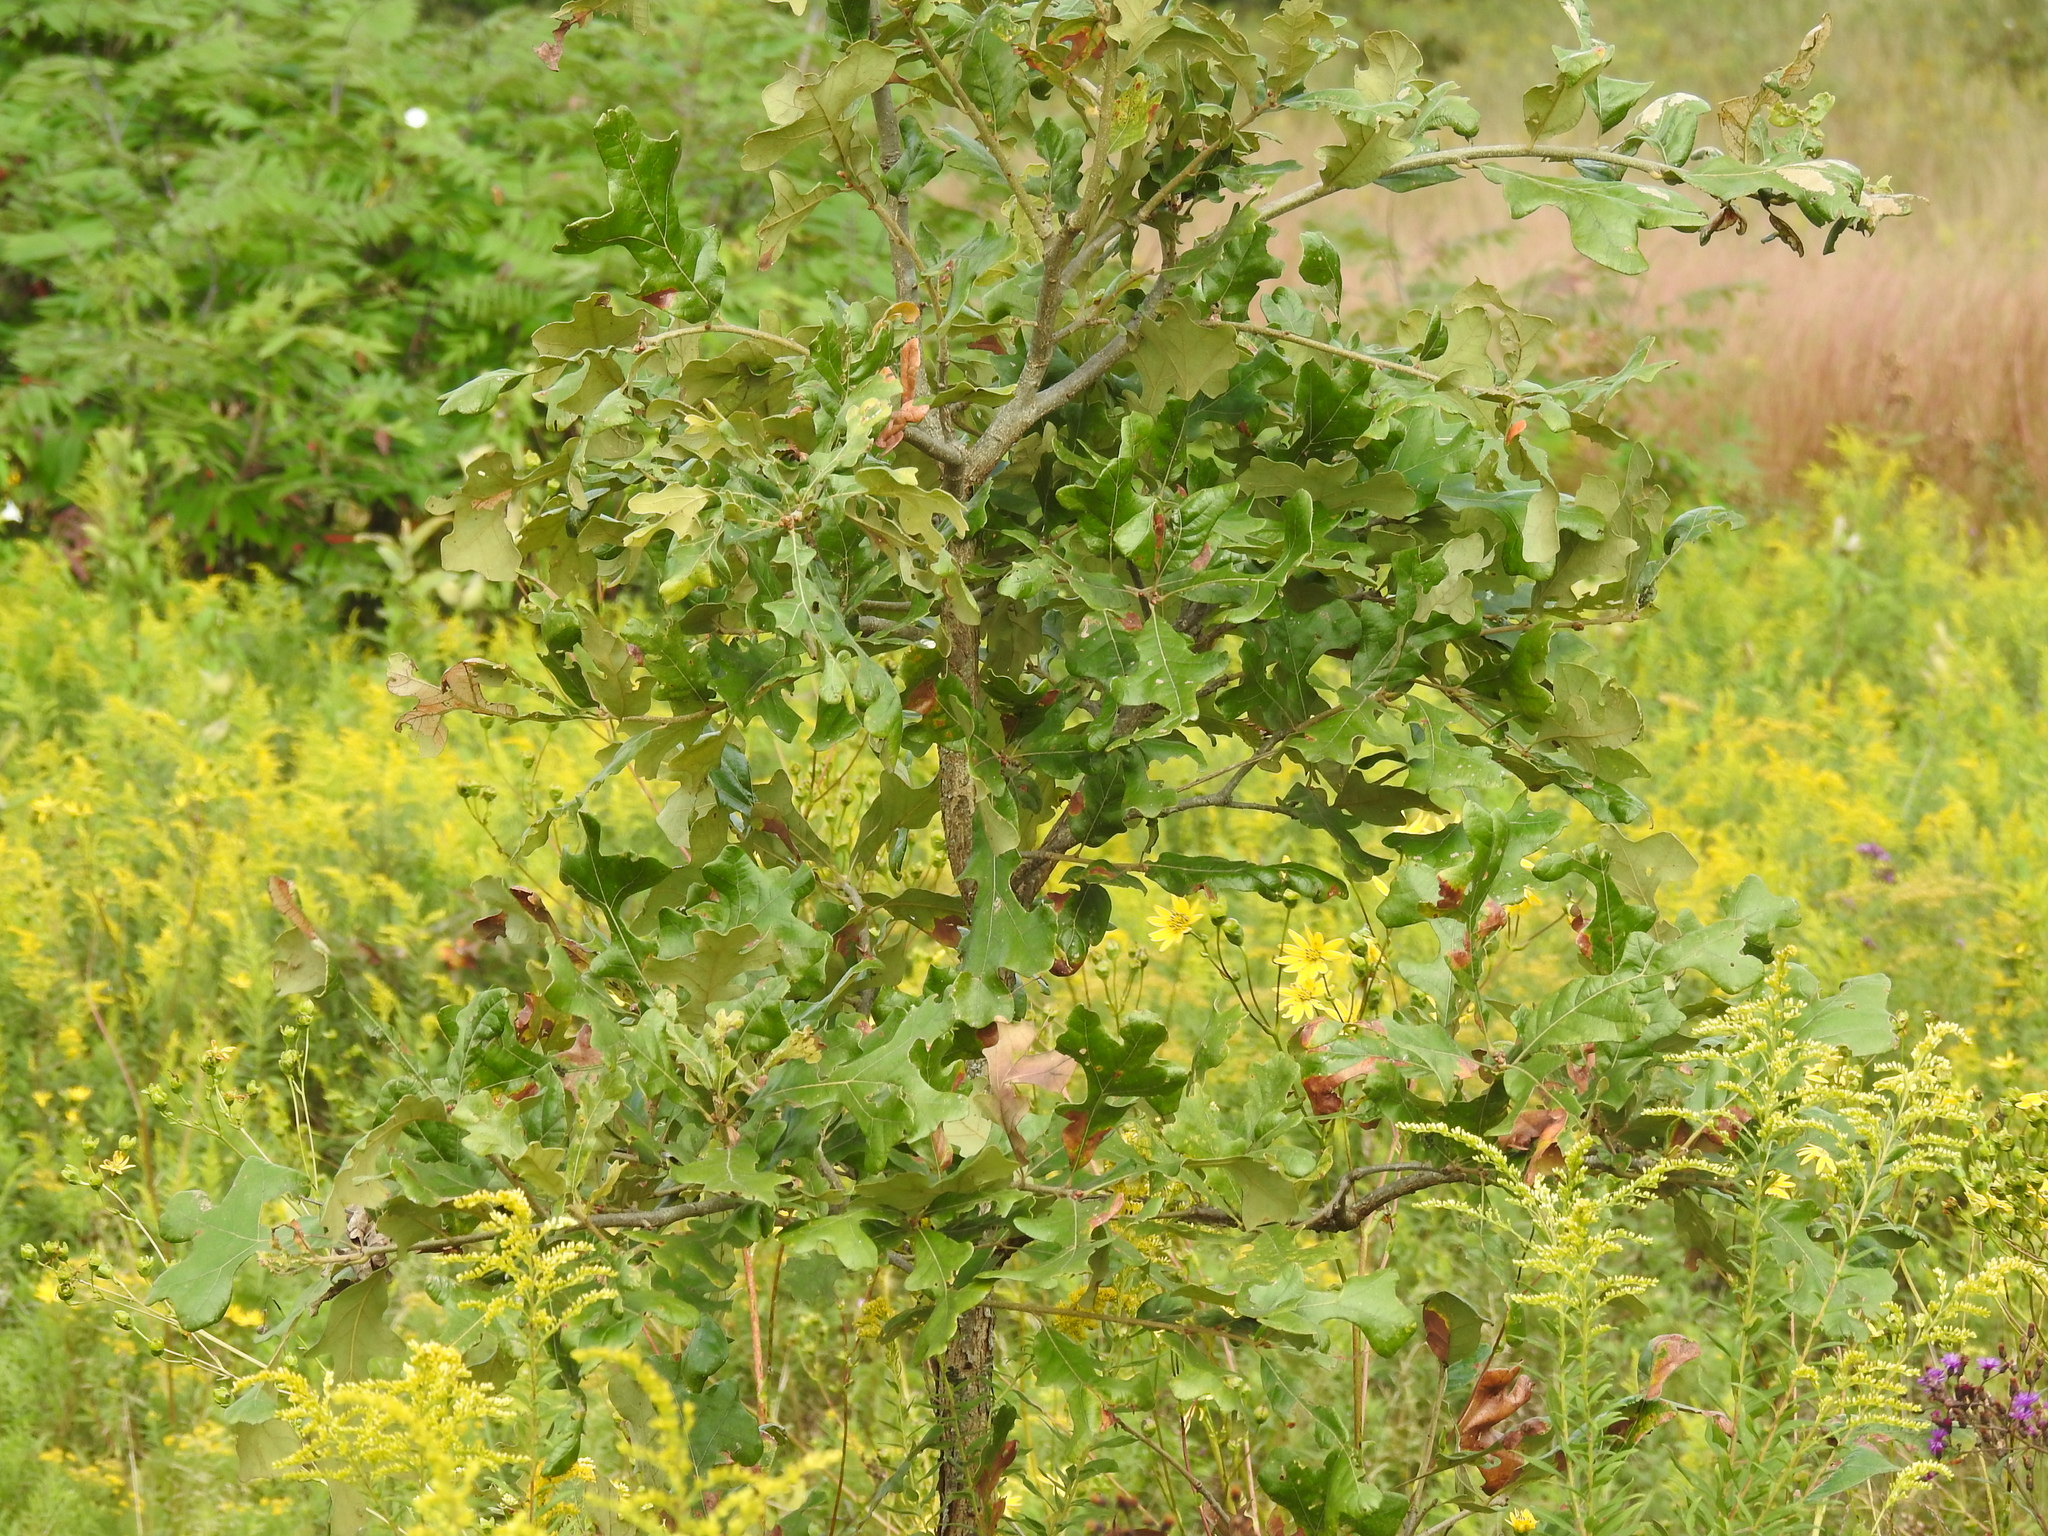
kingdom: Plantae
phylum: Tracheophyta
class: Magnoliopsida
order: Fagales
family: Fagaceae
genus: Quercus
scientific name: Quercus stellata
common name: Post oak
